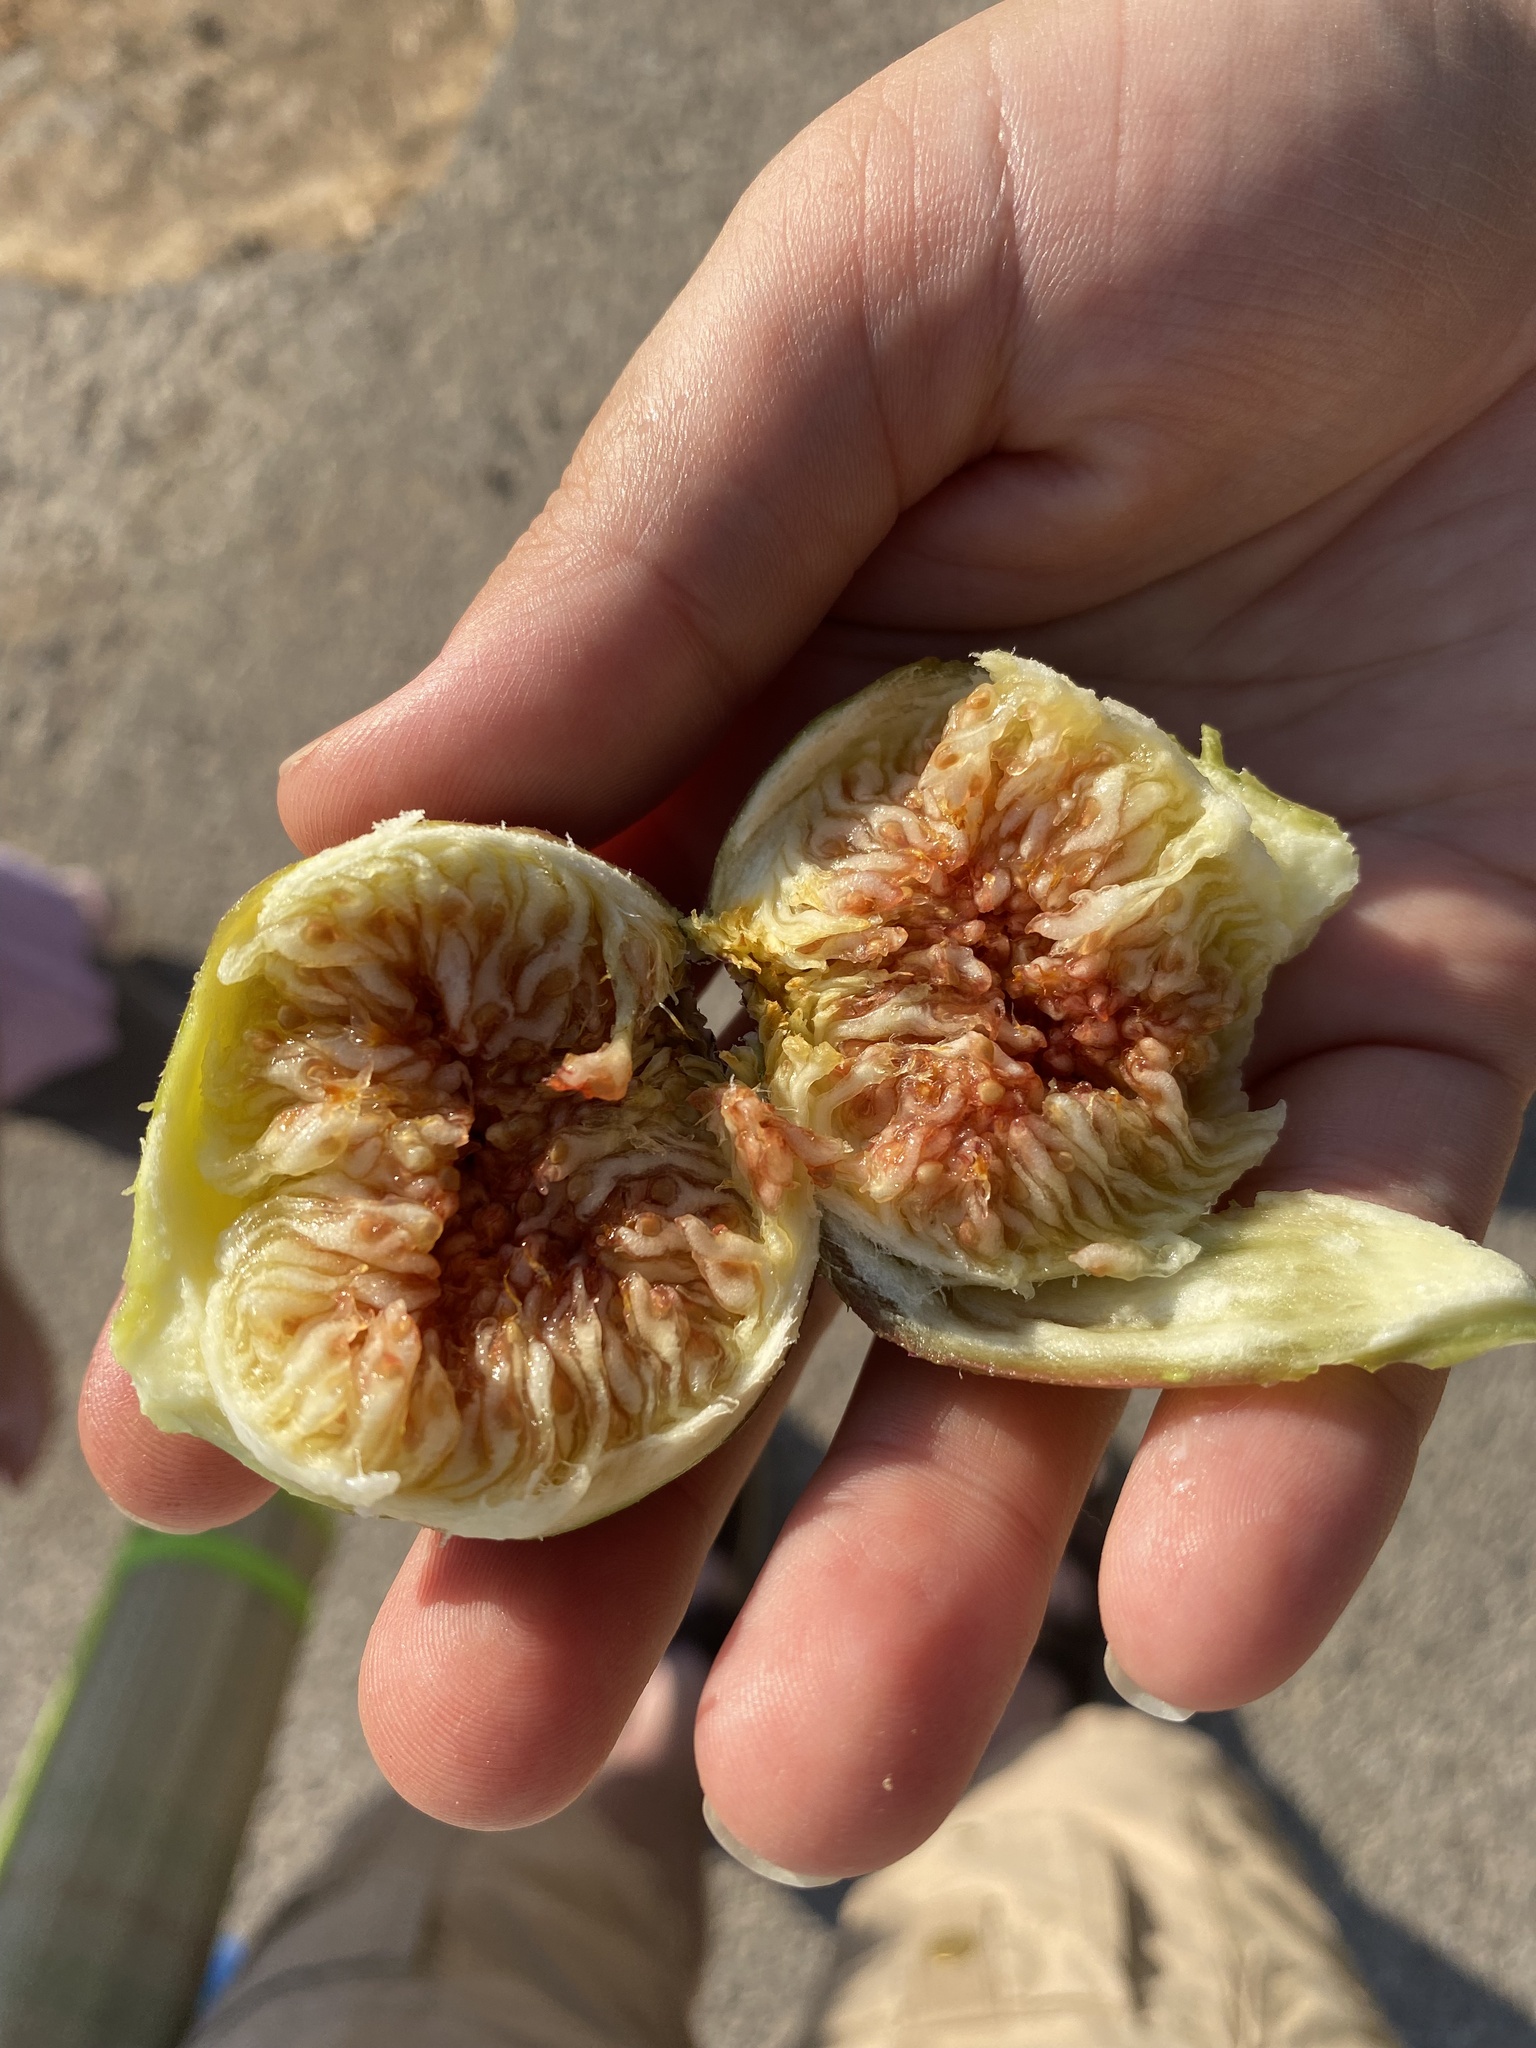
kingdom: Plantae
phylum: Tracheophyta
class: Magnoliopsida
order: Rosales
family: Moraceae
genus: Ficus
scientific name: Ficus carica
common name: Fig
